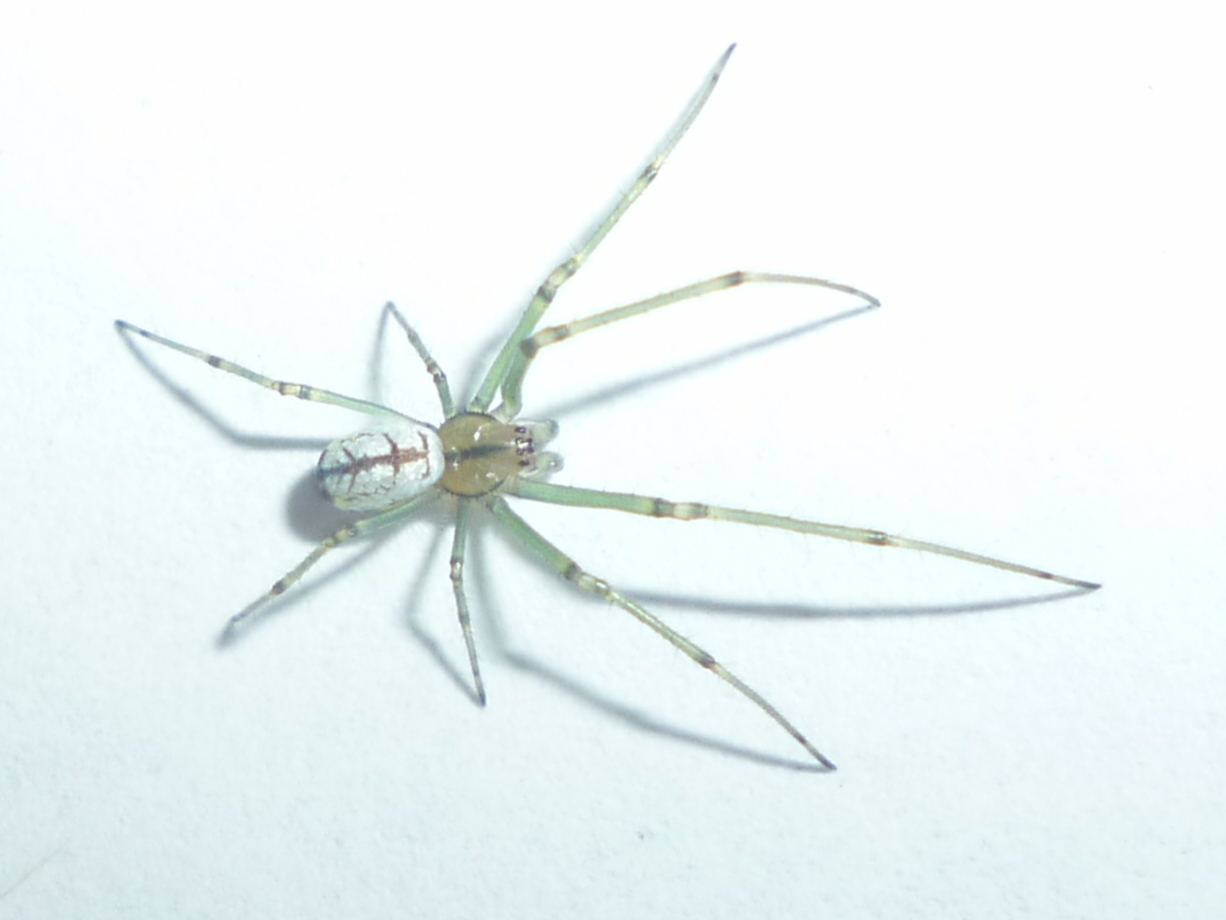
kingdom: Animalia
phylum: Arthropoda
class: Arachnida
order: Araneae
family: Tetragnathidae
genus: Leucauge
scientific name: Leucauge venusta
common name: Longjawed orb weavers
